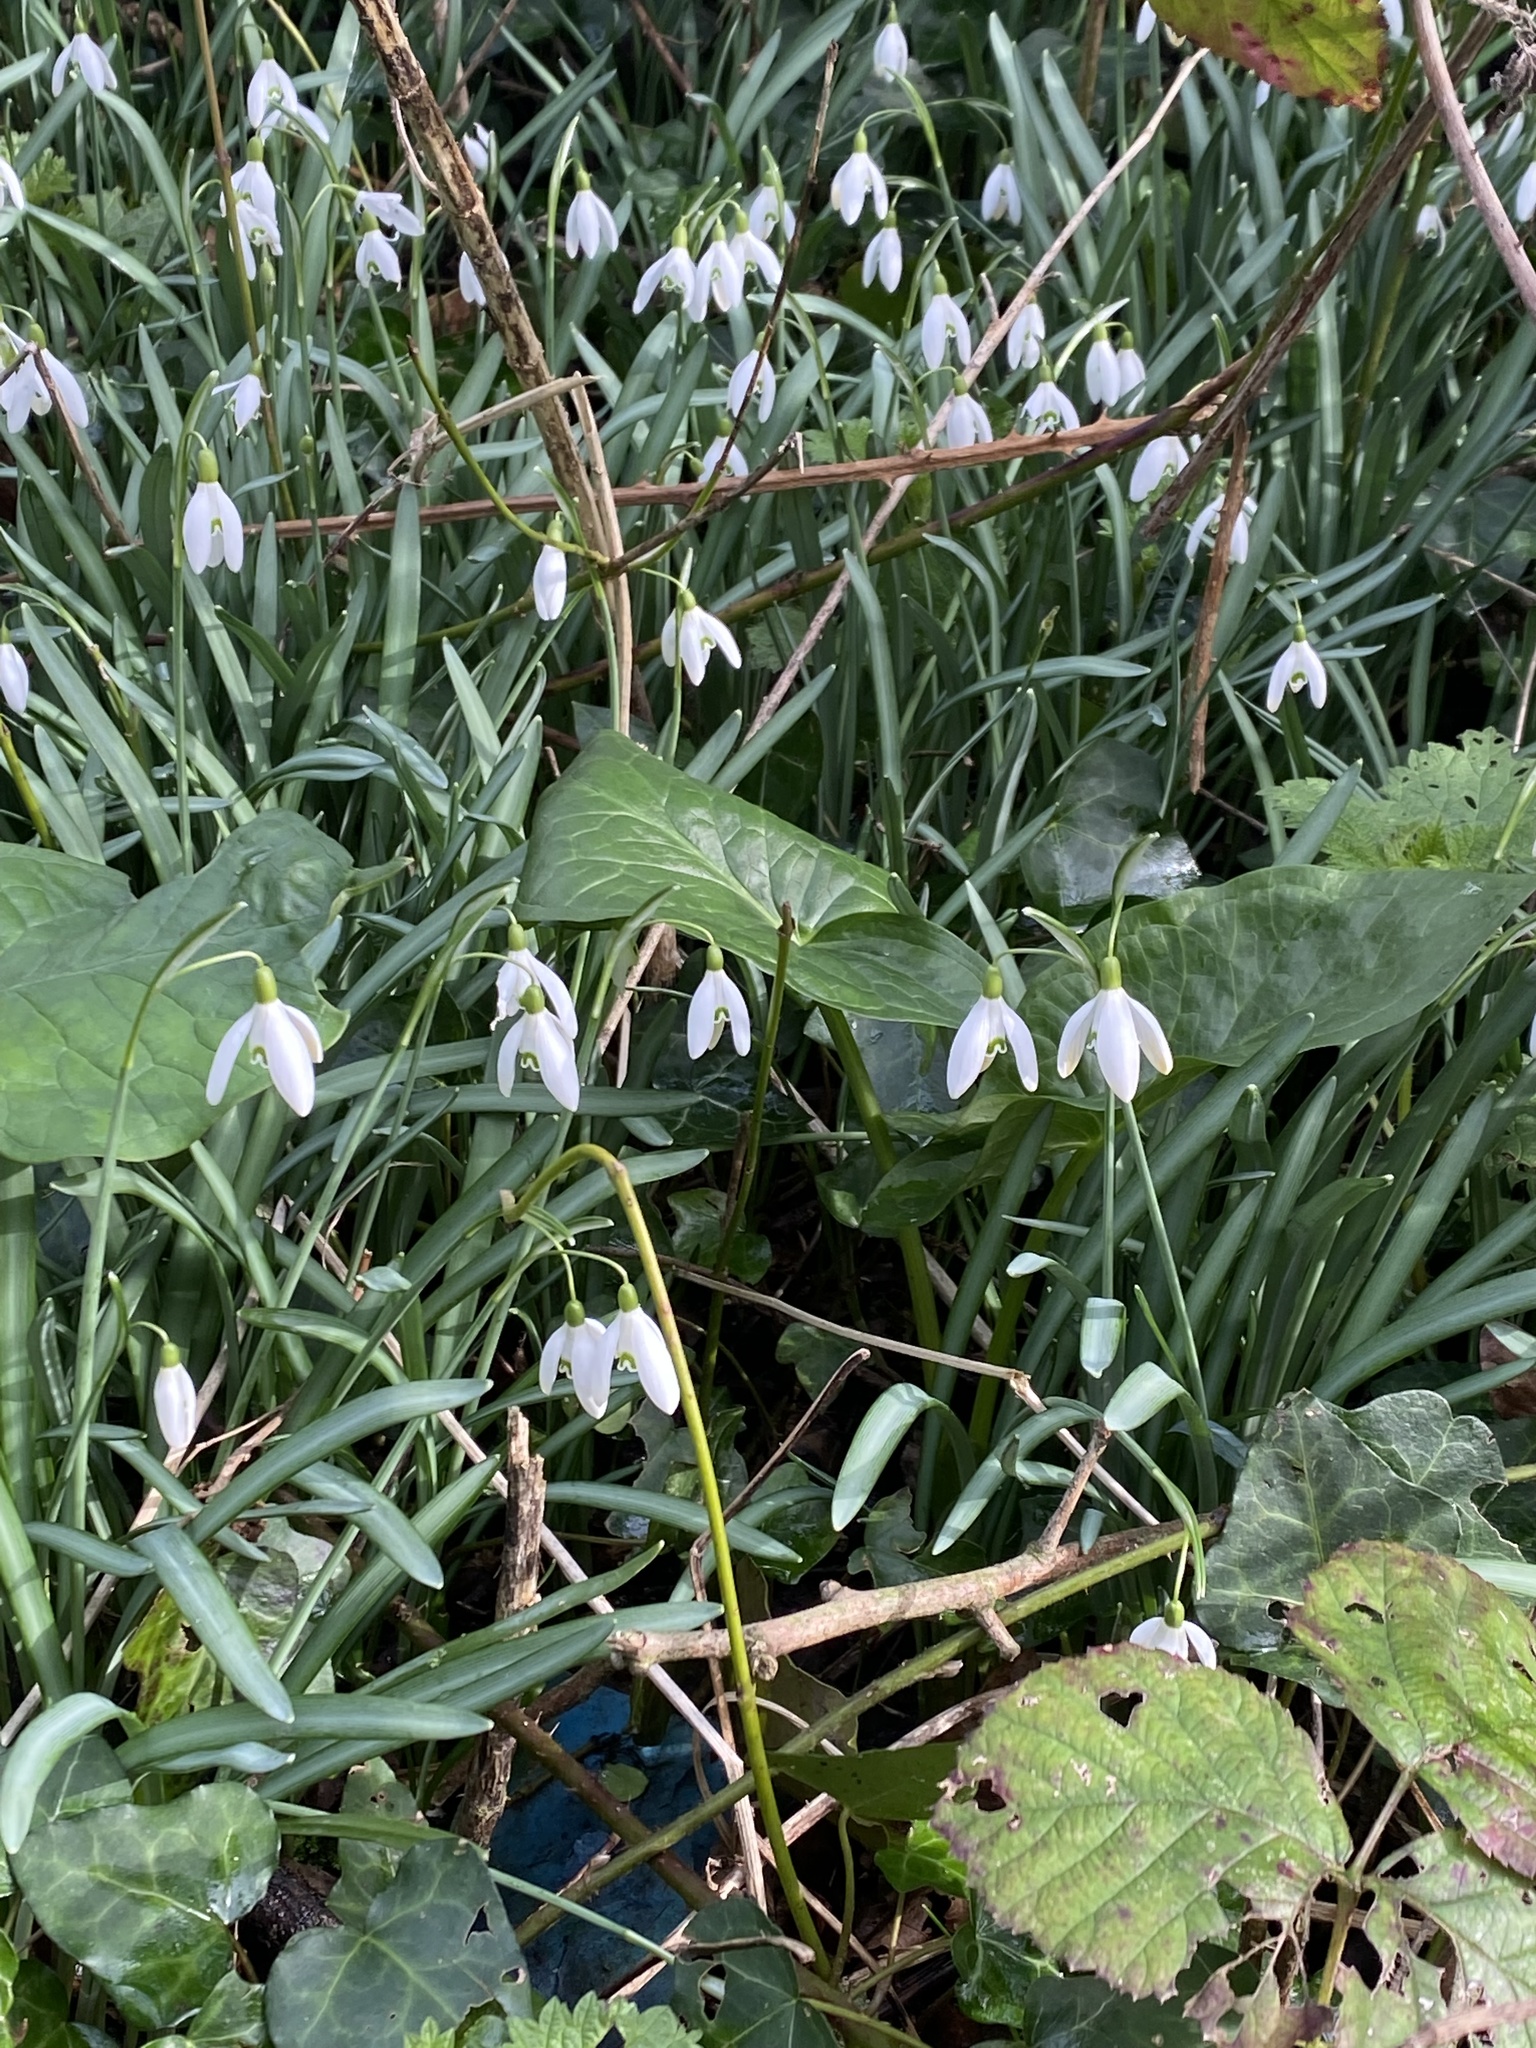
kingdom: Plantae
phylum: Tracheophyta
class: Liliopsida
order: Asparagales
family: Amaryllidaceae
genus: Galanthus
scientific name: Galanthus nivalis
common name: Snowdrop
